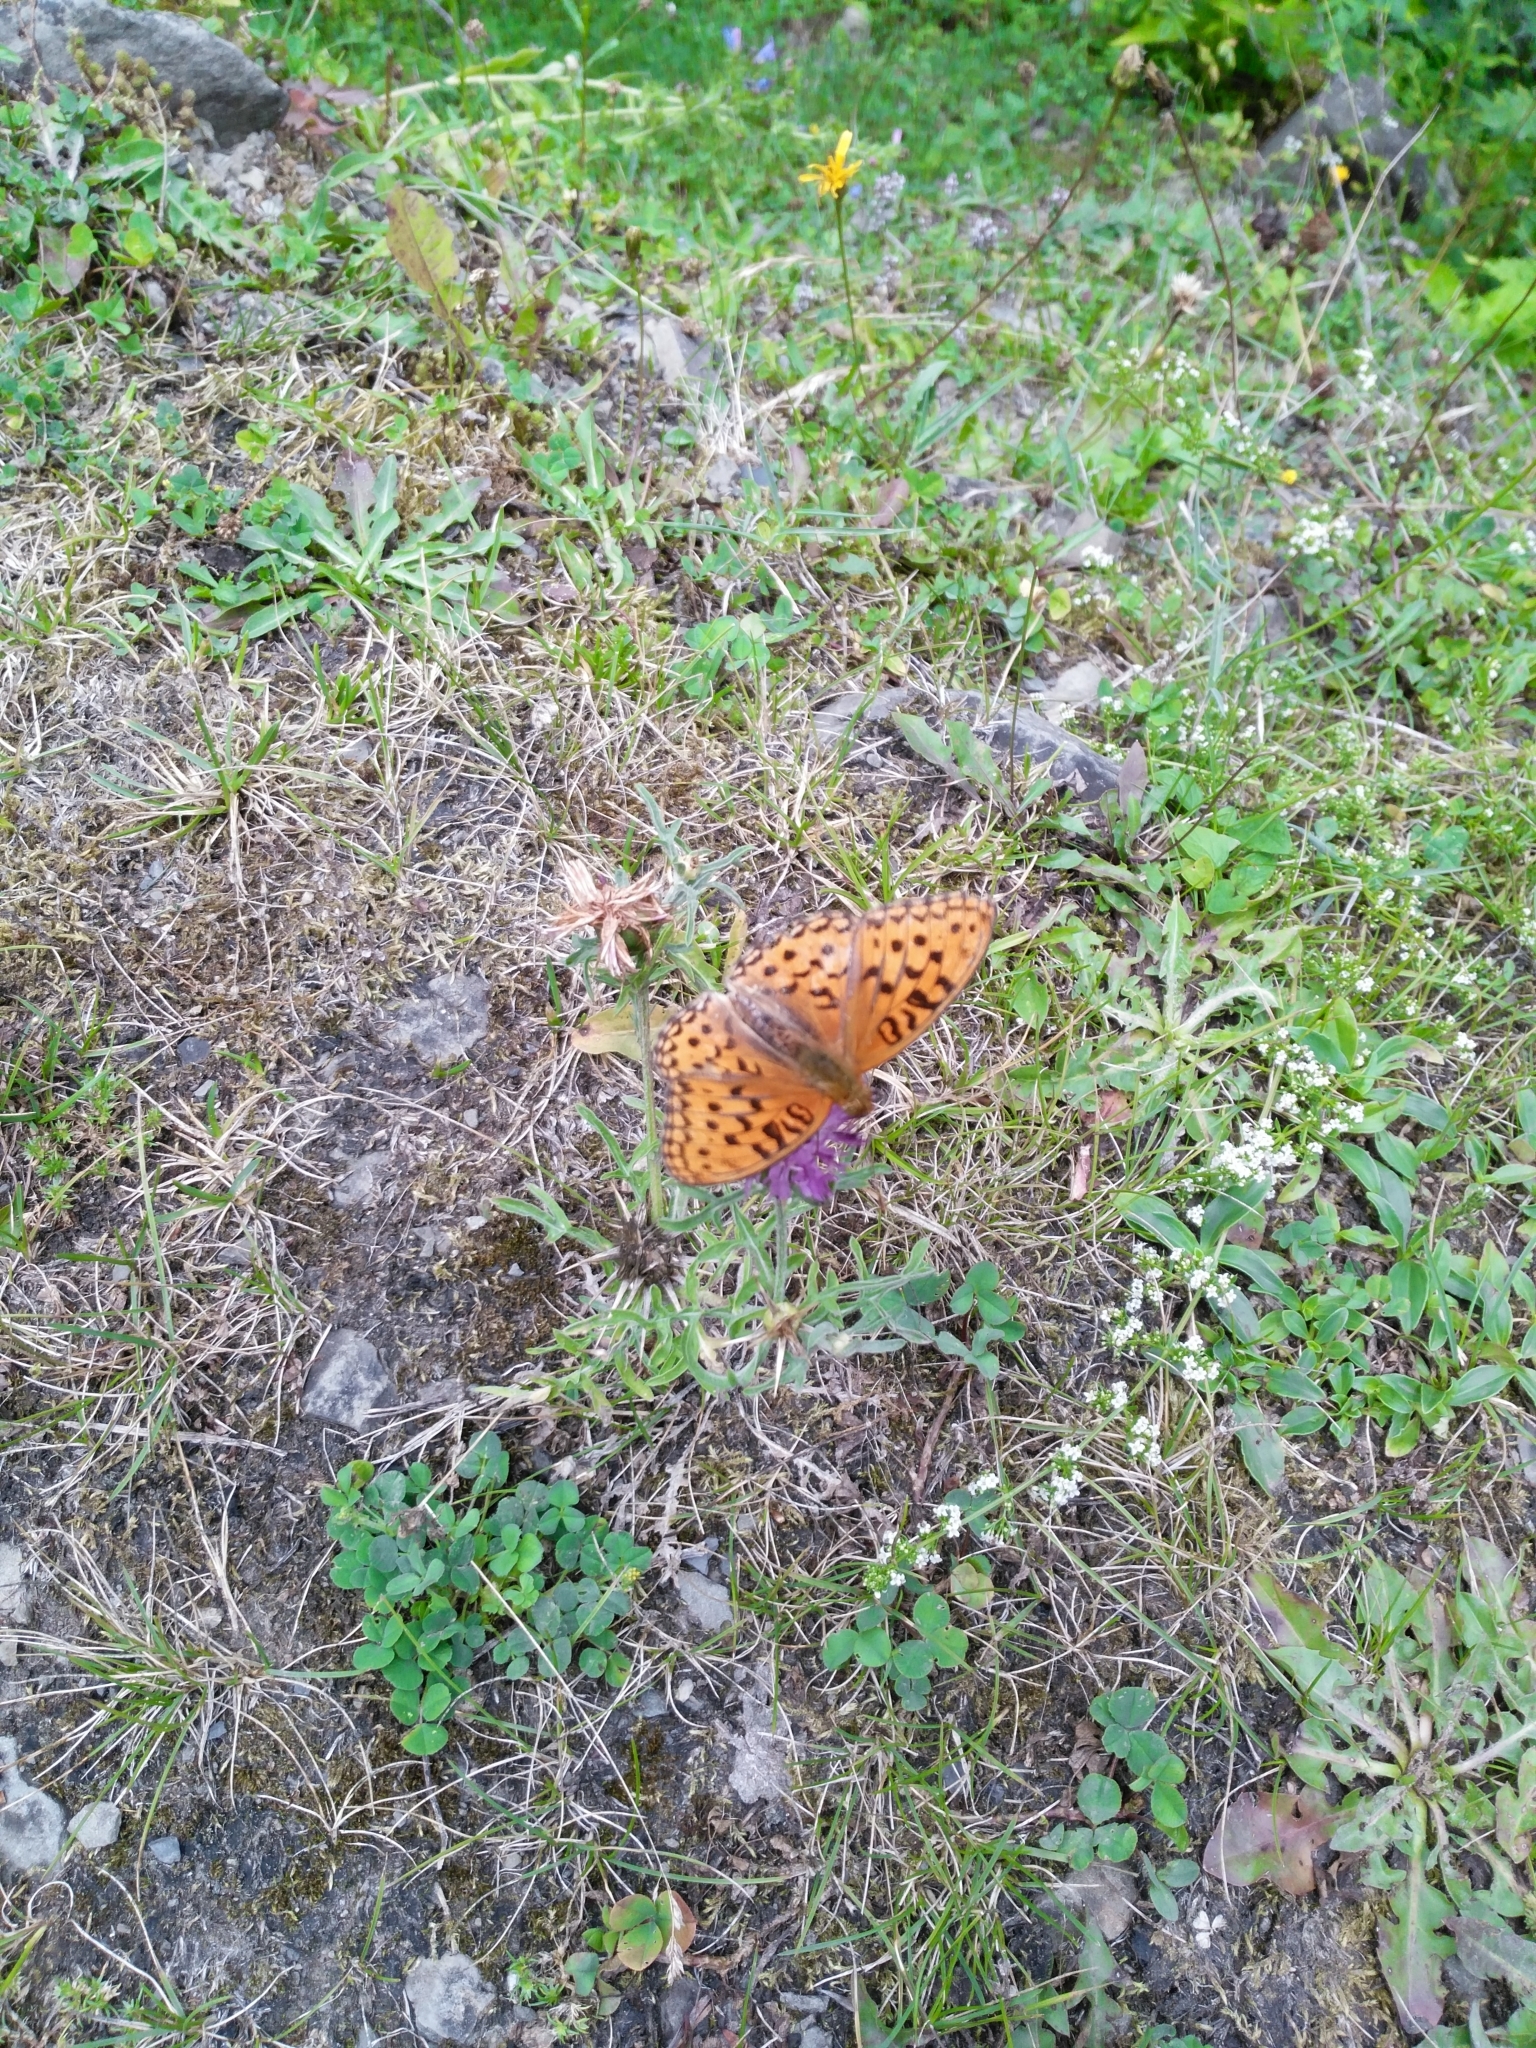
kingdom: Animalia
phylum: Arthropoda
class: Insecta
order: Lepidoptera
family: Nymphalidae
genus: Fabriciana
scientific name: Fabriciana adippe
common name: High brown fritillary
